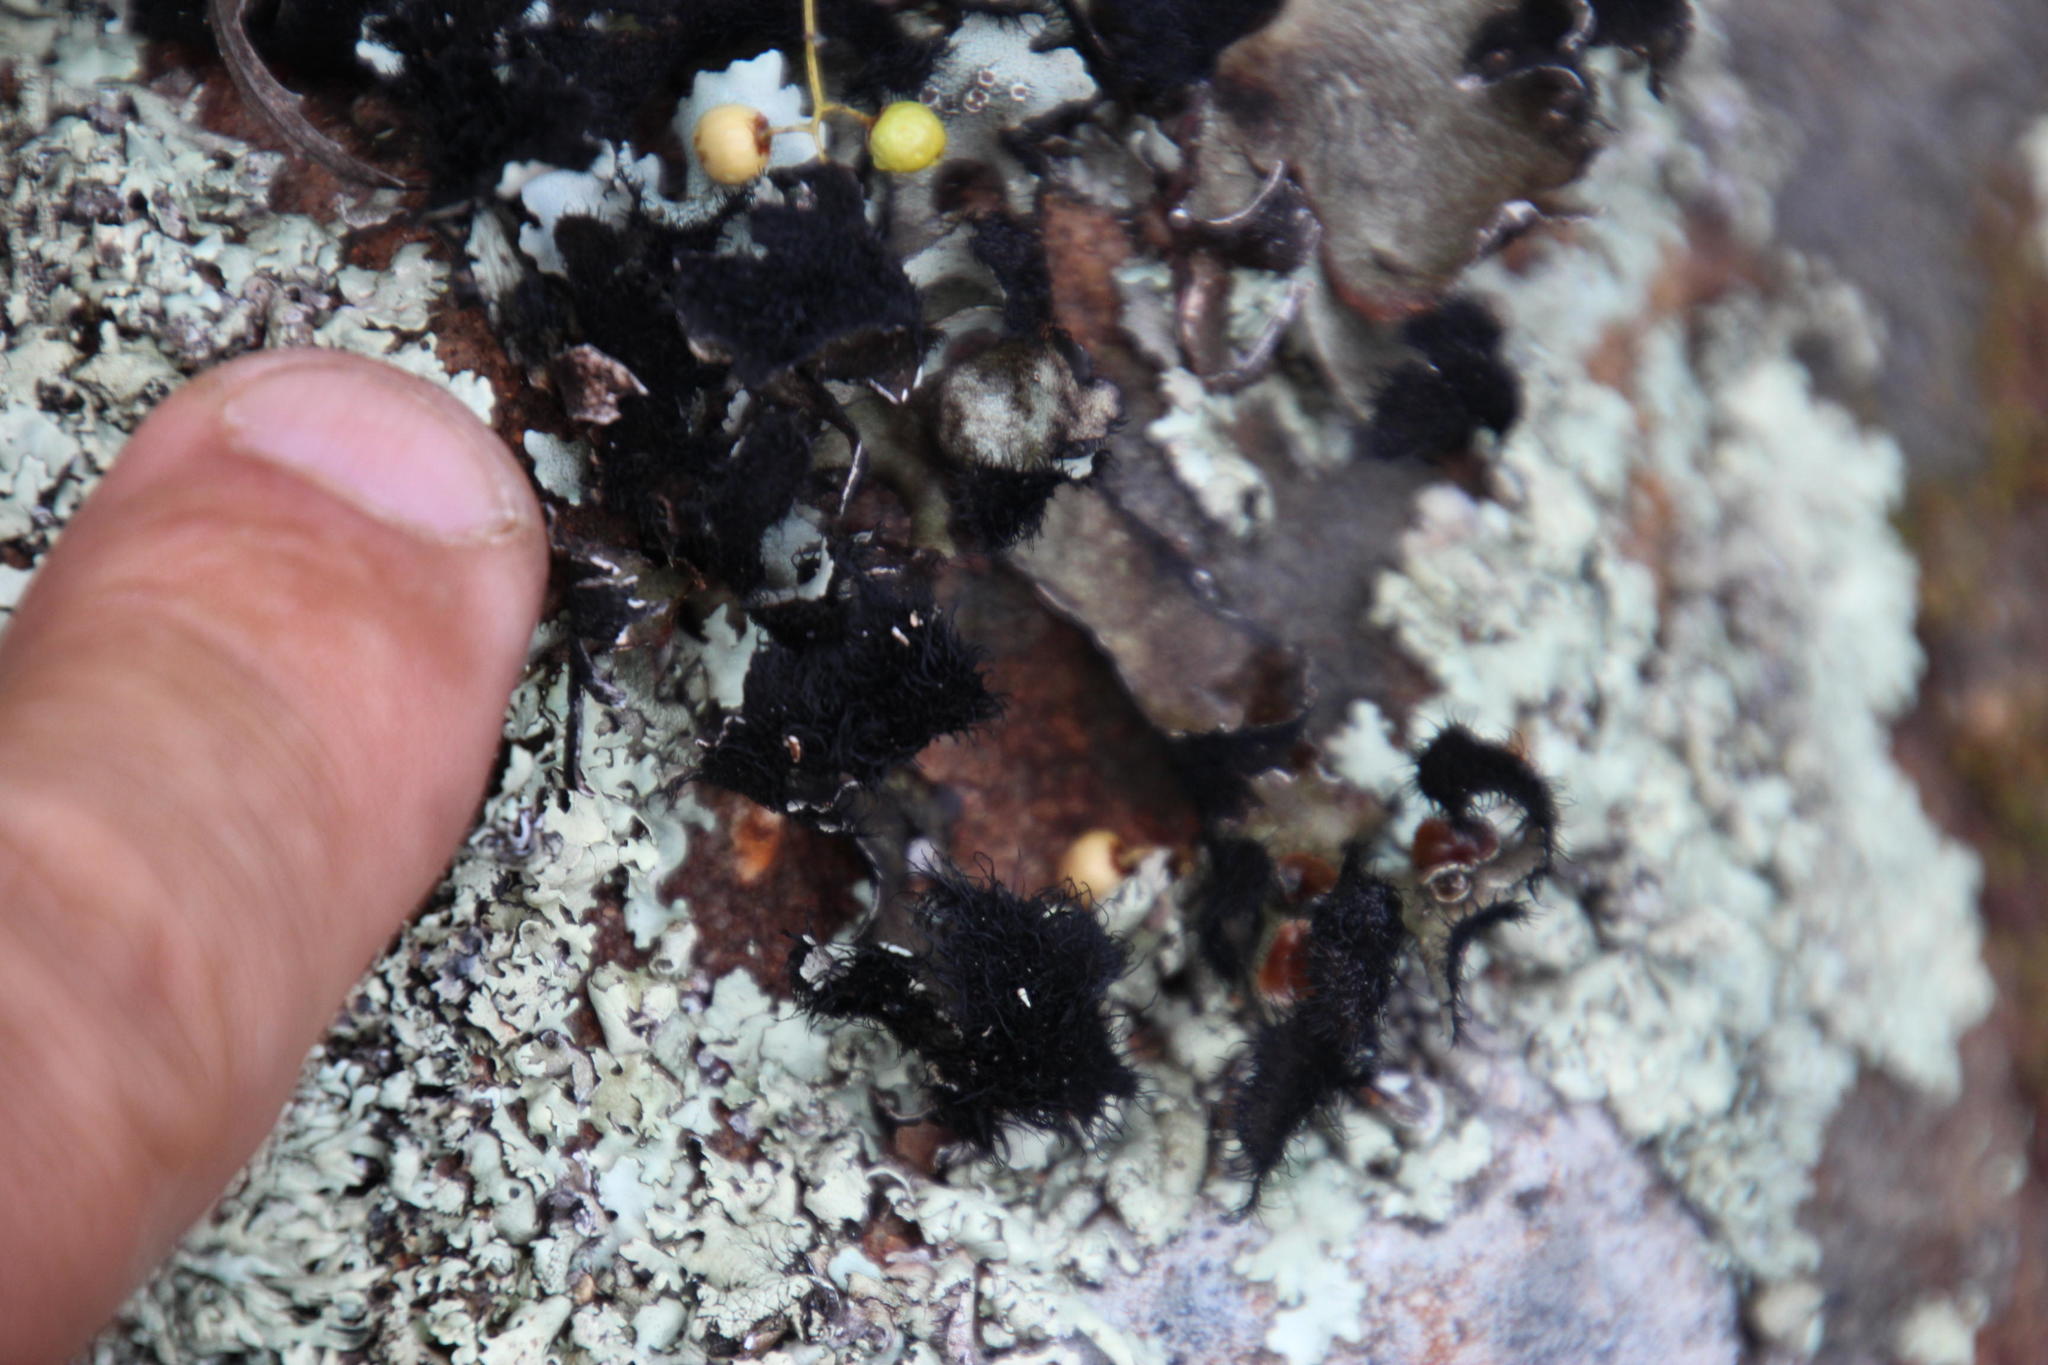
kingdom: Fungi
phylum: Ascomycota
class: Lecanoromycetes
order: Lecanorales
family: Parmeliaceae
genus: Xanthoparmelia
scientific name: Xanthoparmelia hottentotta
